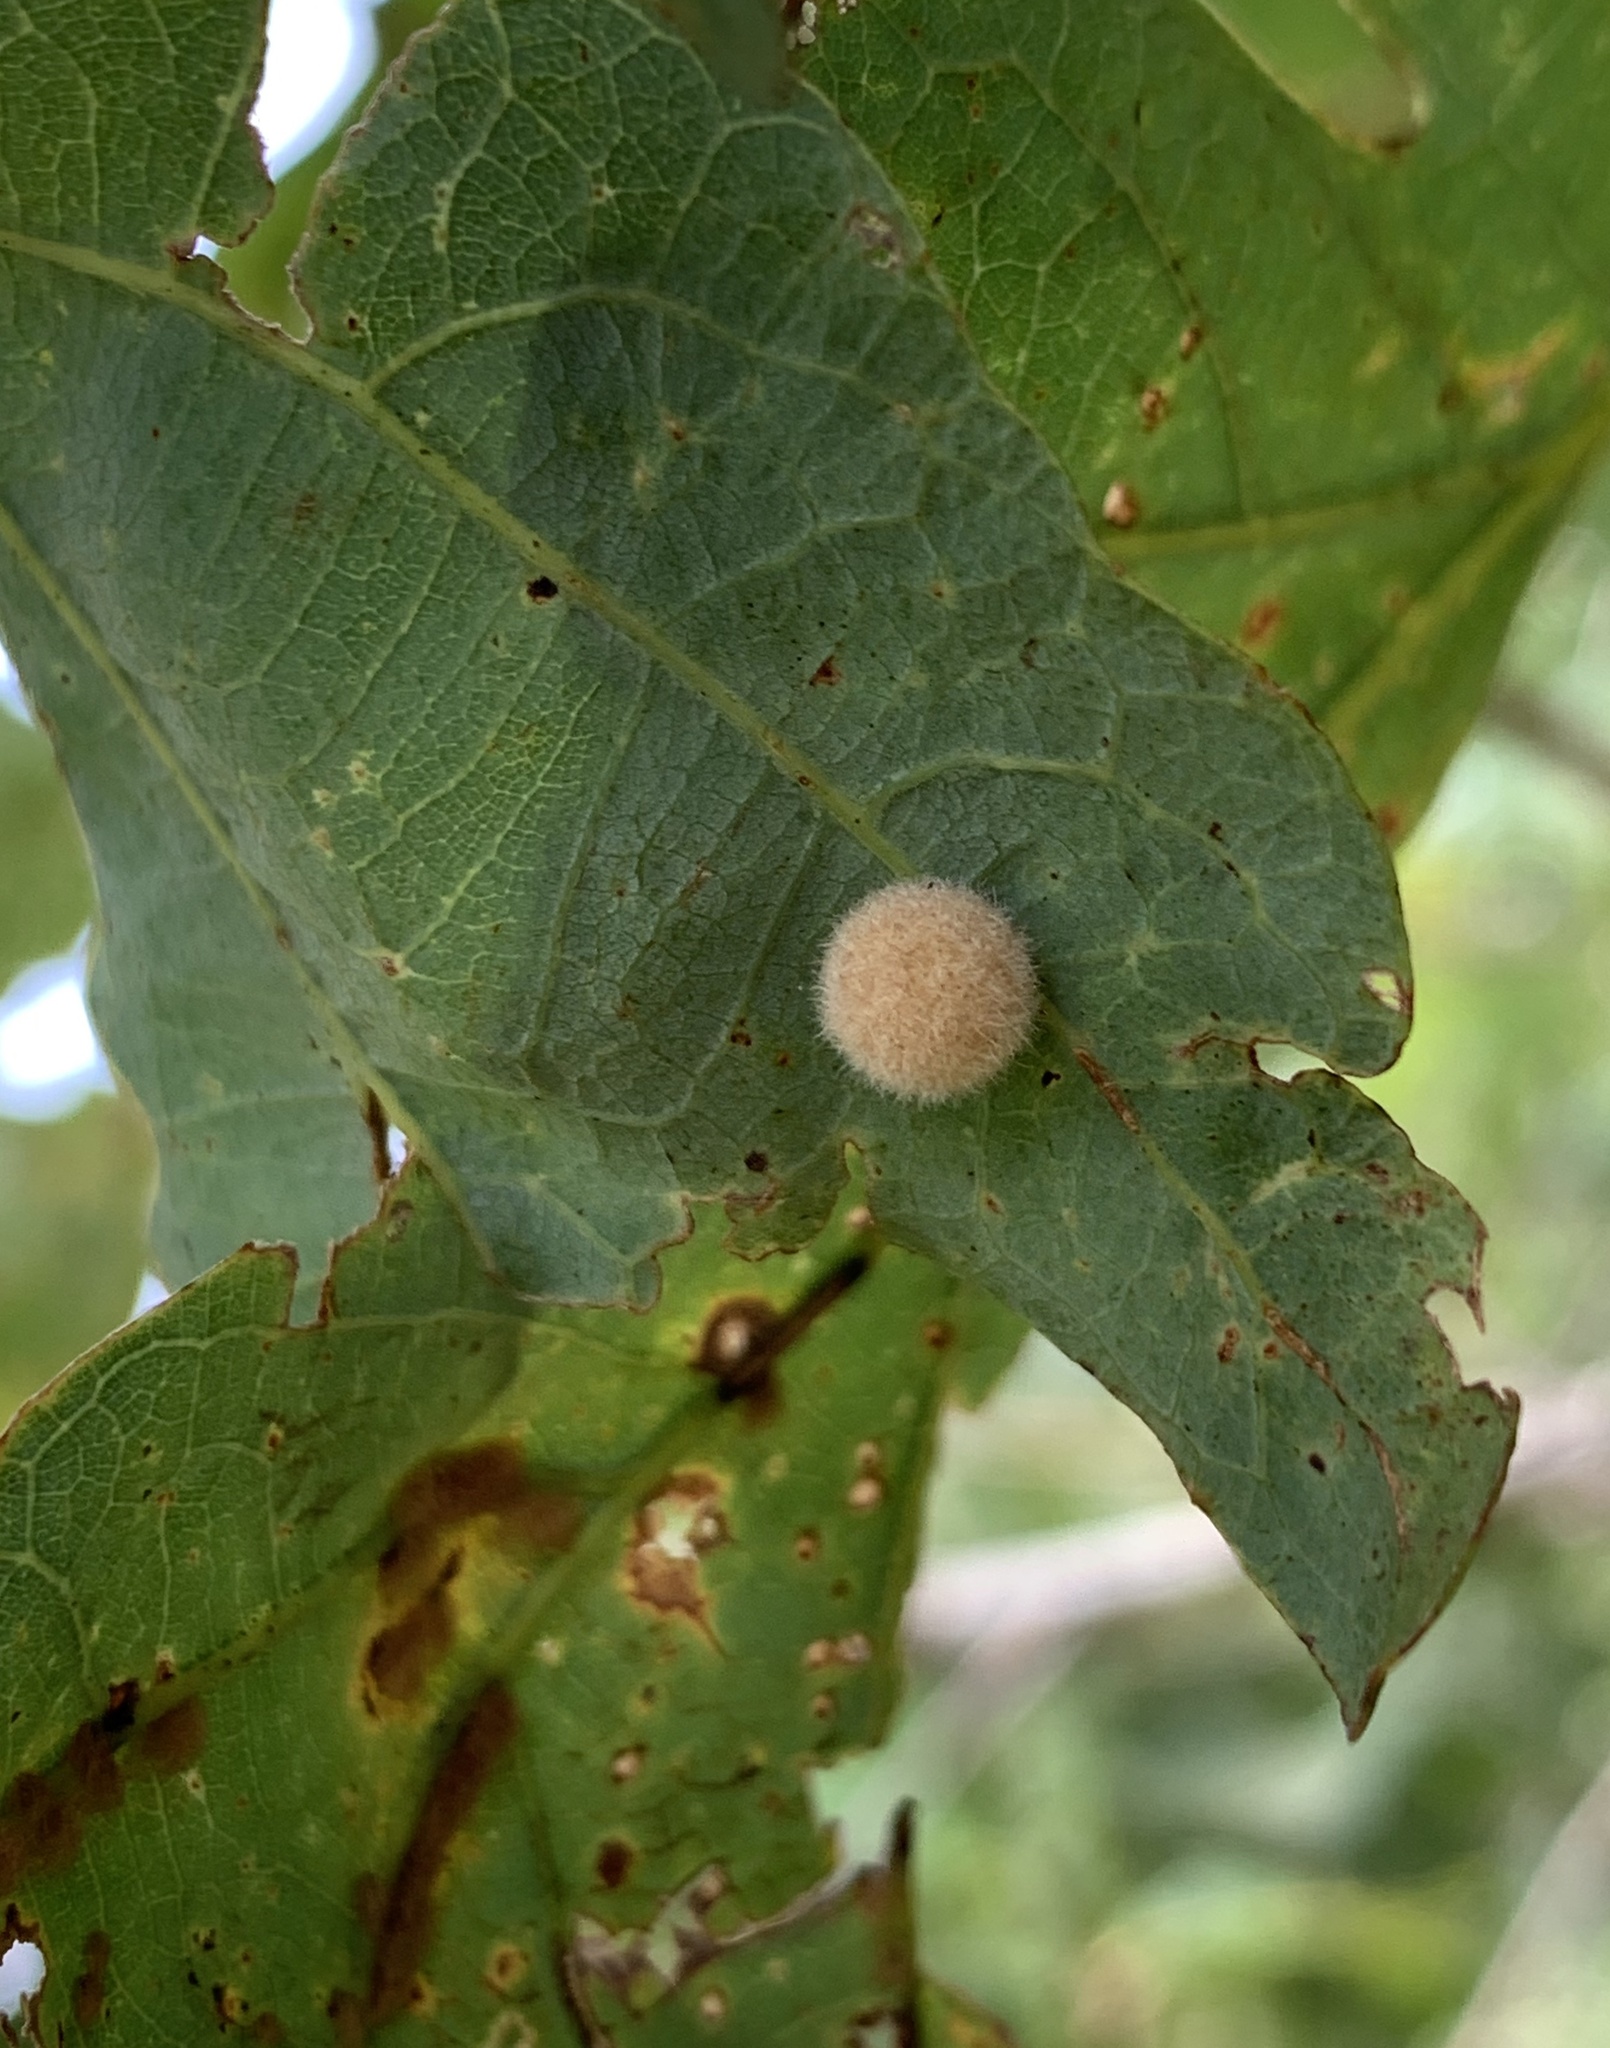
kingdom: Animalia
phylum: Arthropoda
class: Insecta
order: Hymenoptera
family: Cynipidae
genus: Philonix
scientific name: Philonix fulvicollis
